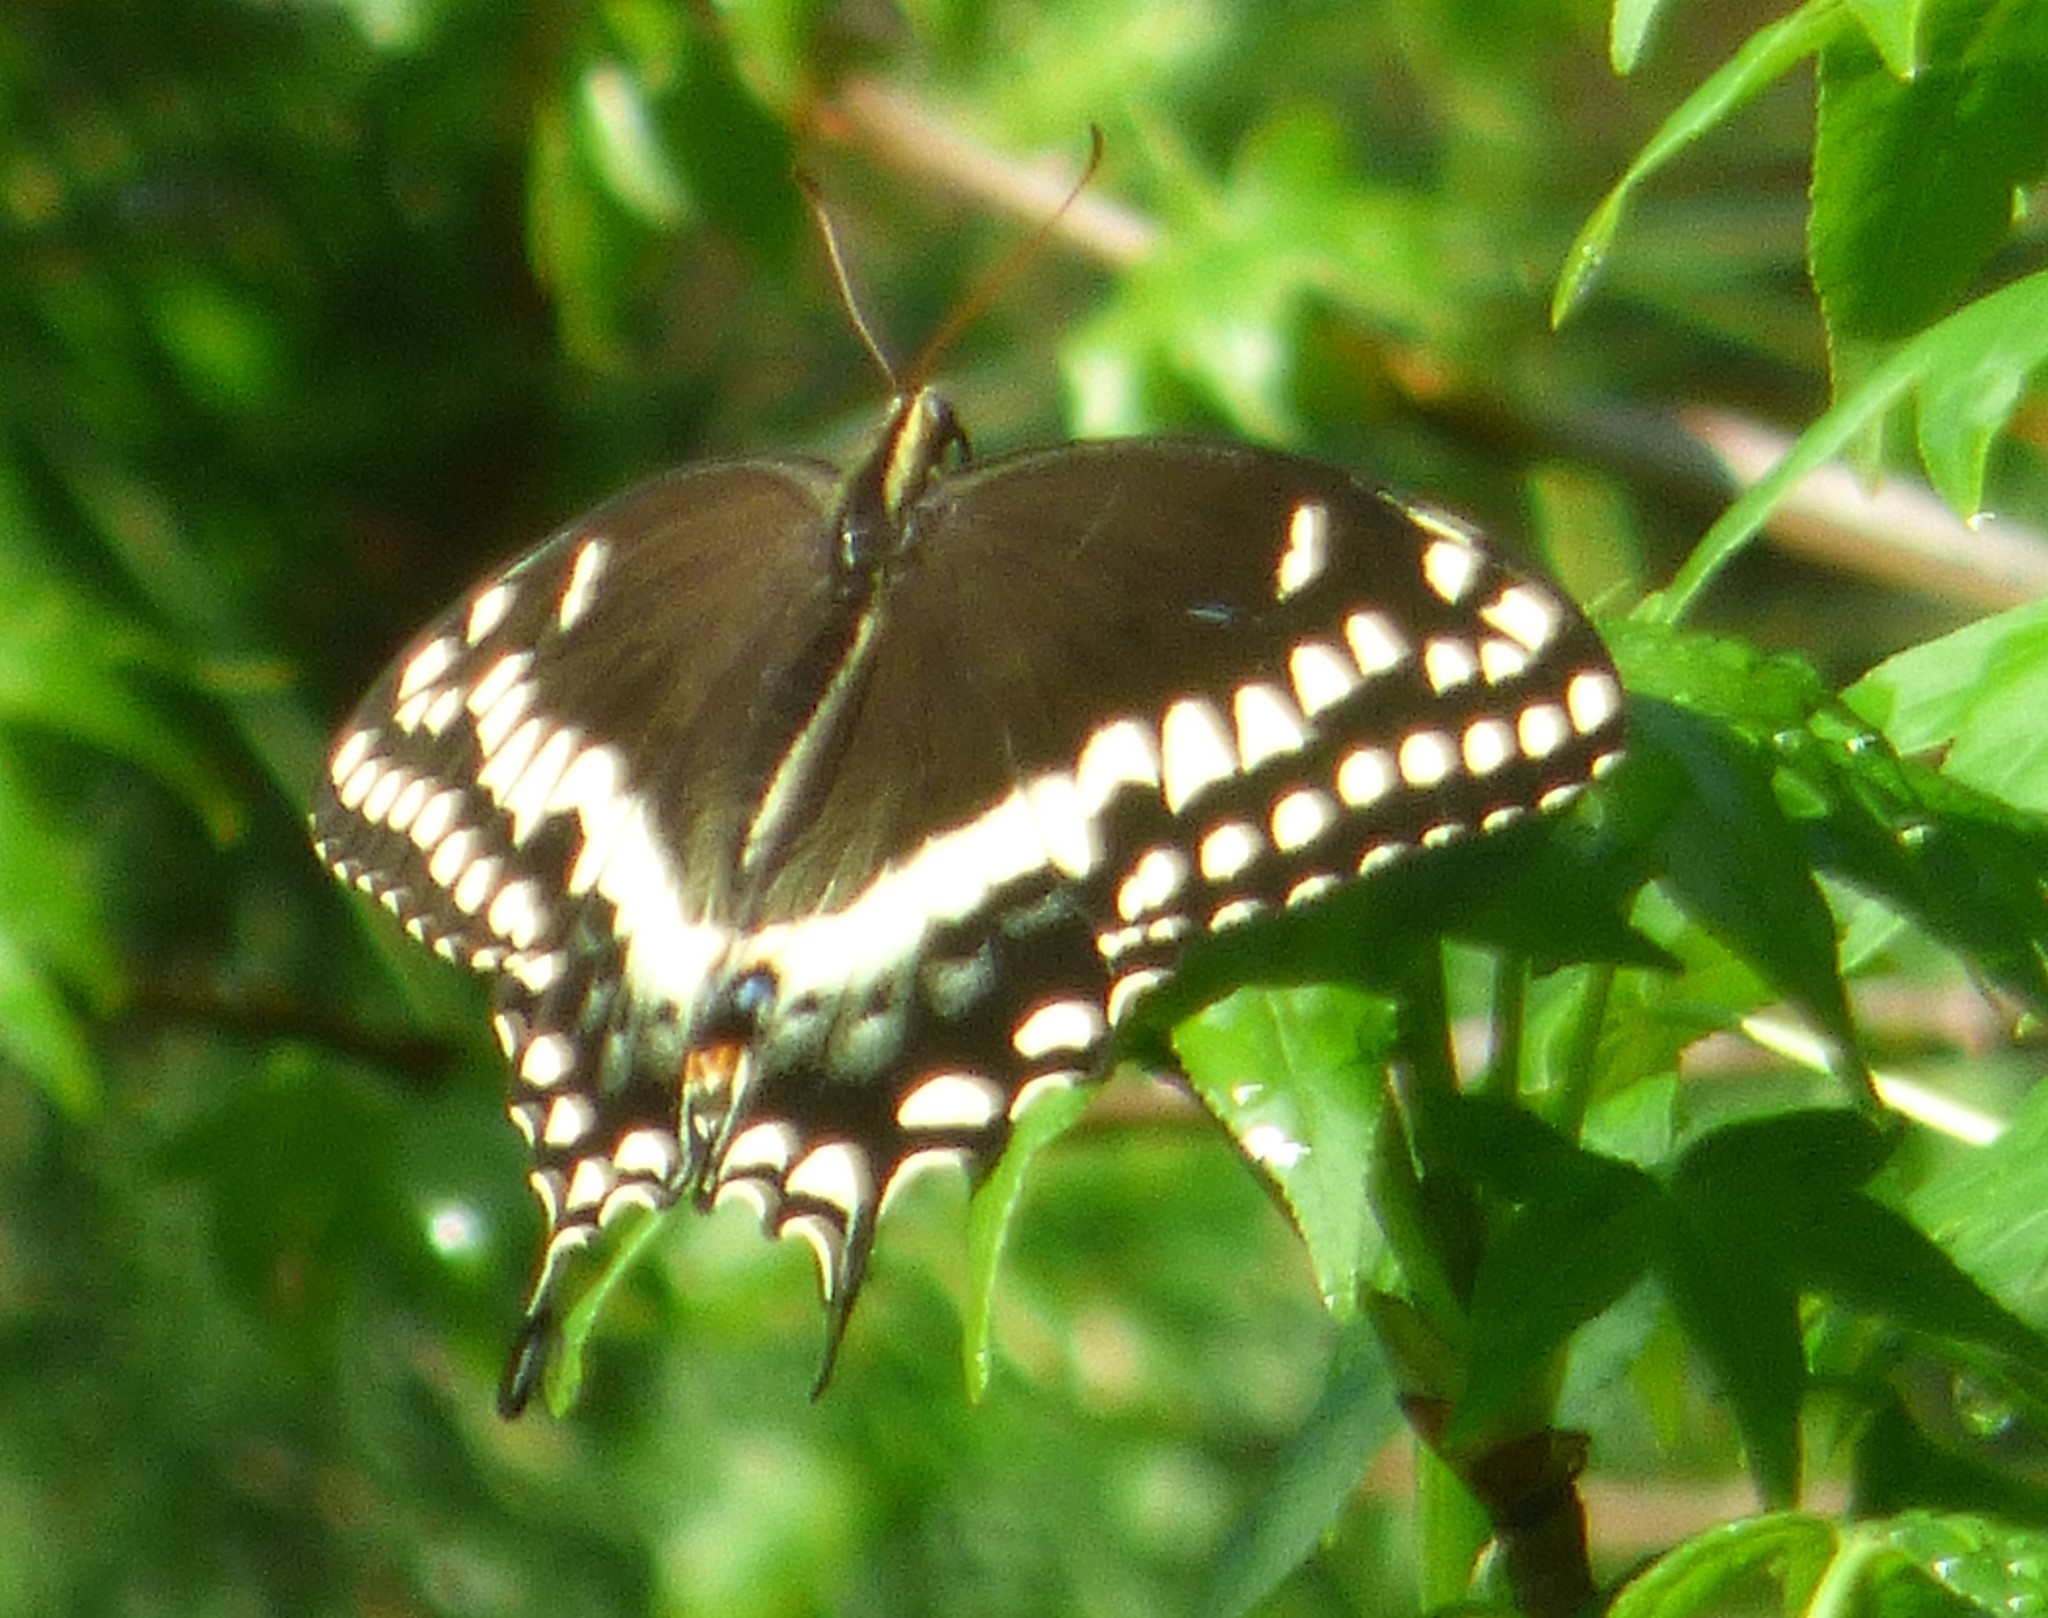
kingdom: Animalia
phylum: Arthropoda
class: Insecta
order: Lepidoptera
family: Papilionidae
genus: Papilio
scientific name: Papilio palamedes
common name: Palamedes swallowtail
